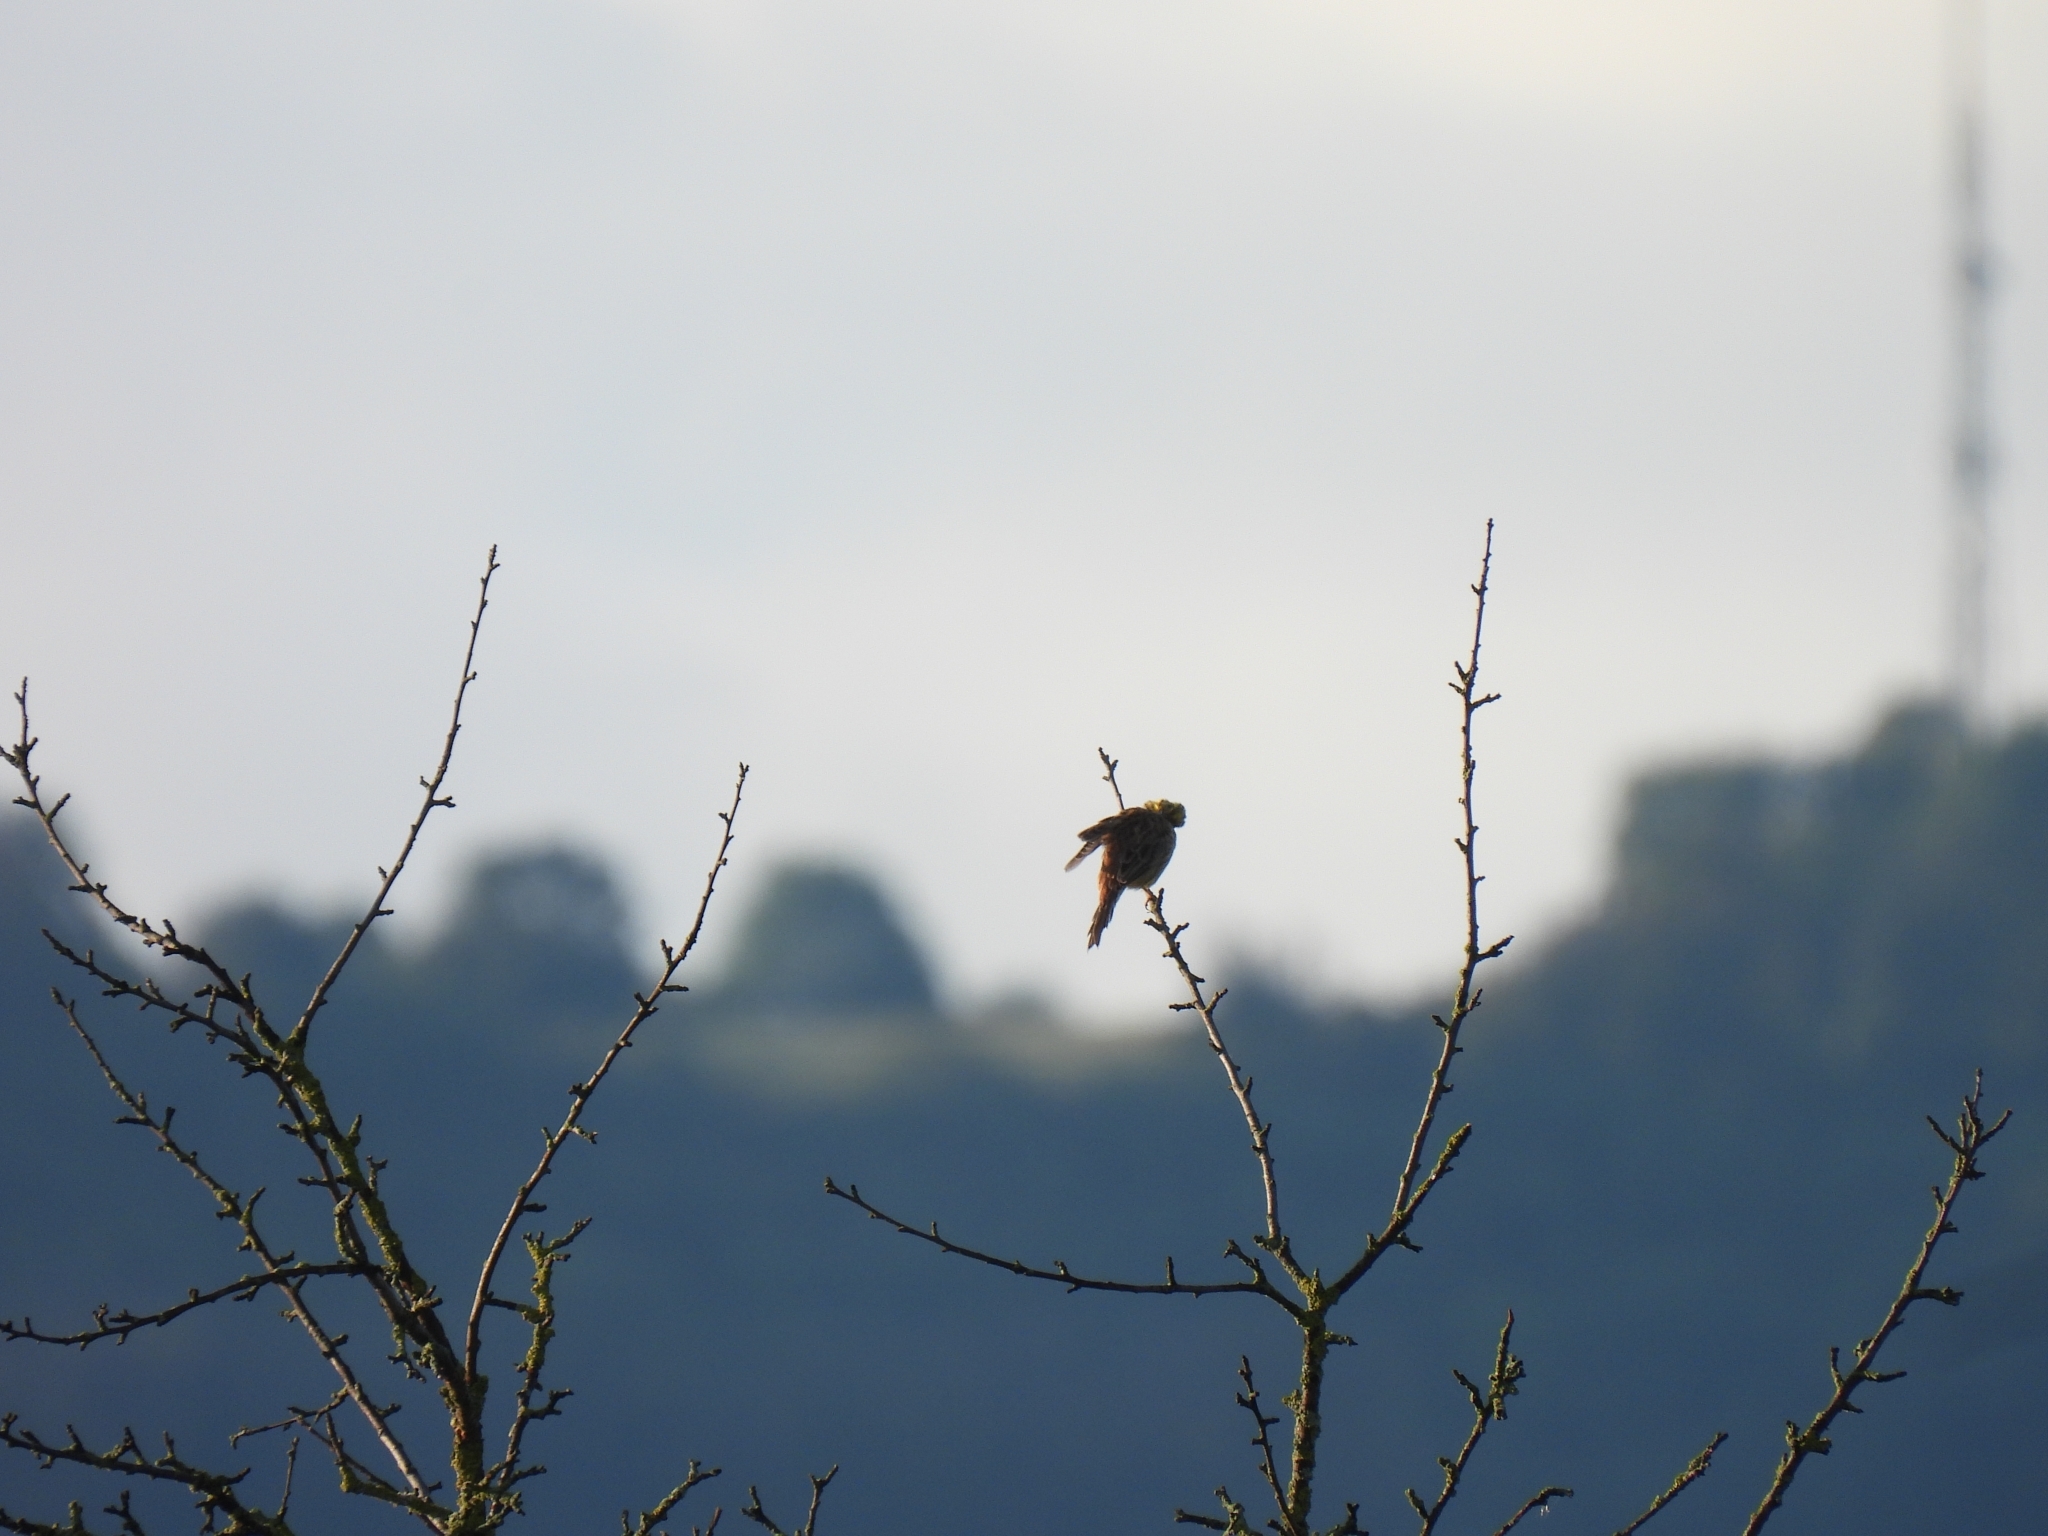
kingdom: Animalia
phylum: Chordata
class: Aves
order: Passeriformes
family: Emberizidae
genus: Emberiza
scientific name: Emberiza citrinella
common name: Yellowhammer
